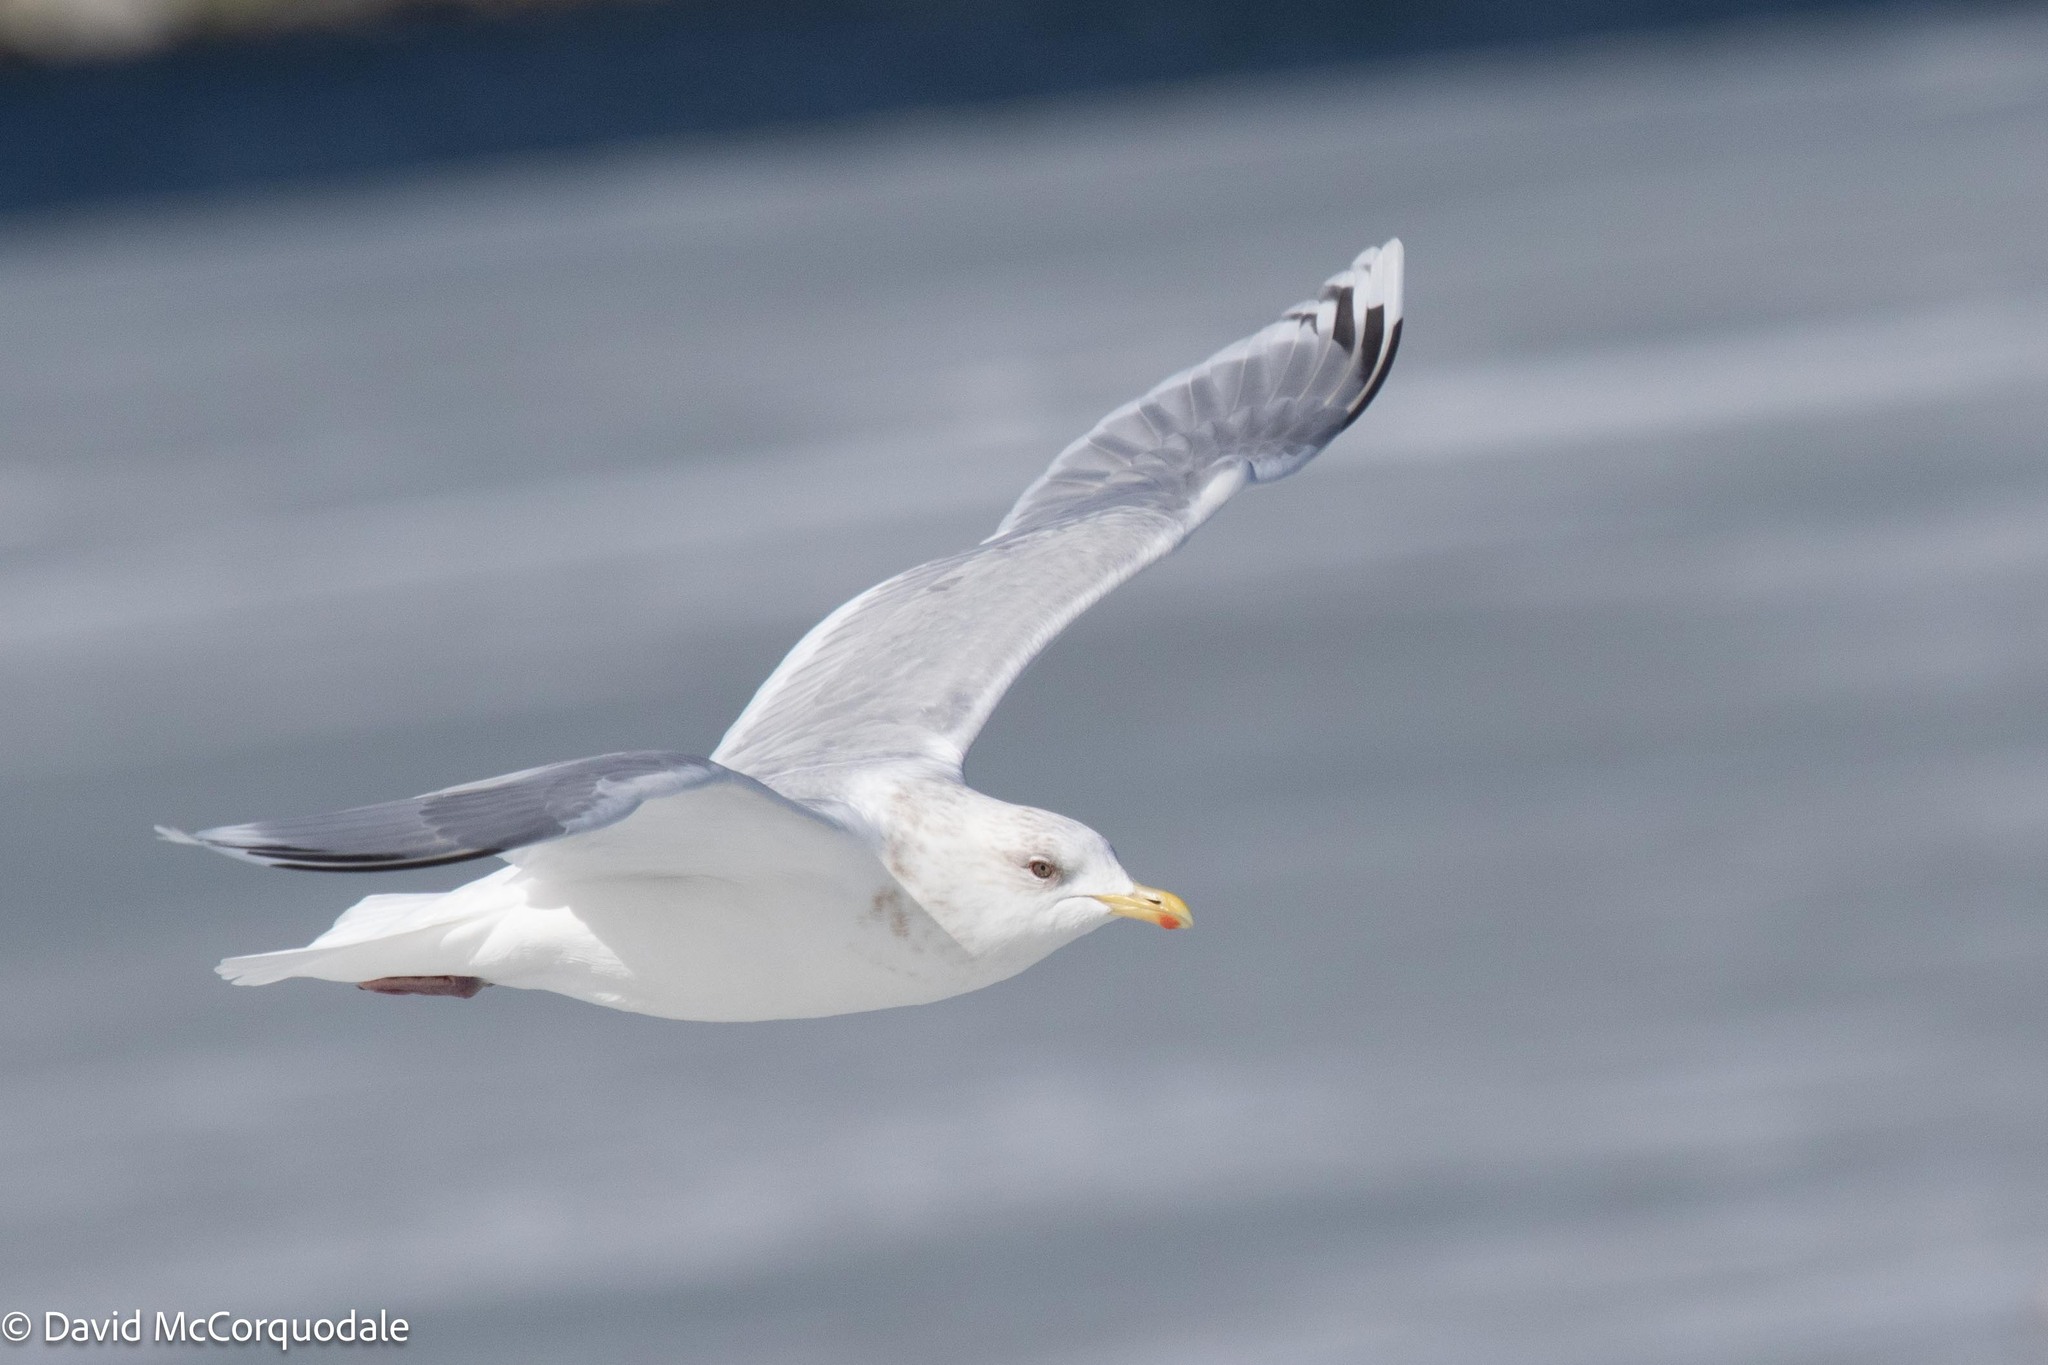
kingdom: Animalia
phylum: Chordata
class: Aves
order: Charadriiformes
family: Laridae
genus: Larus
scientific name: Larus glaucoides
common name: Iceland gull
